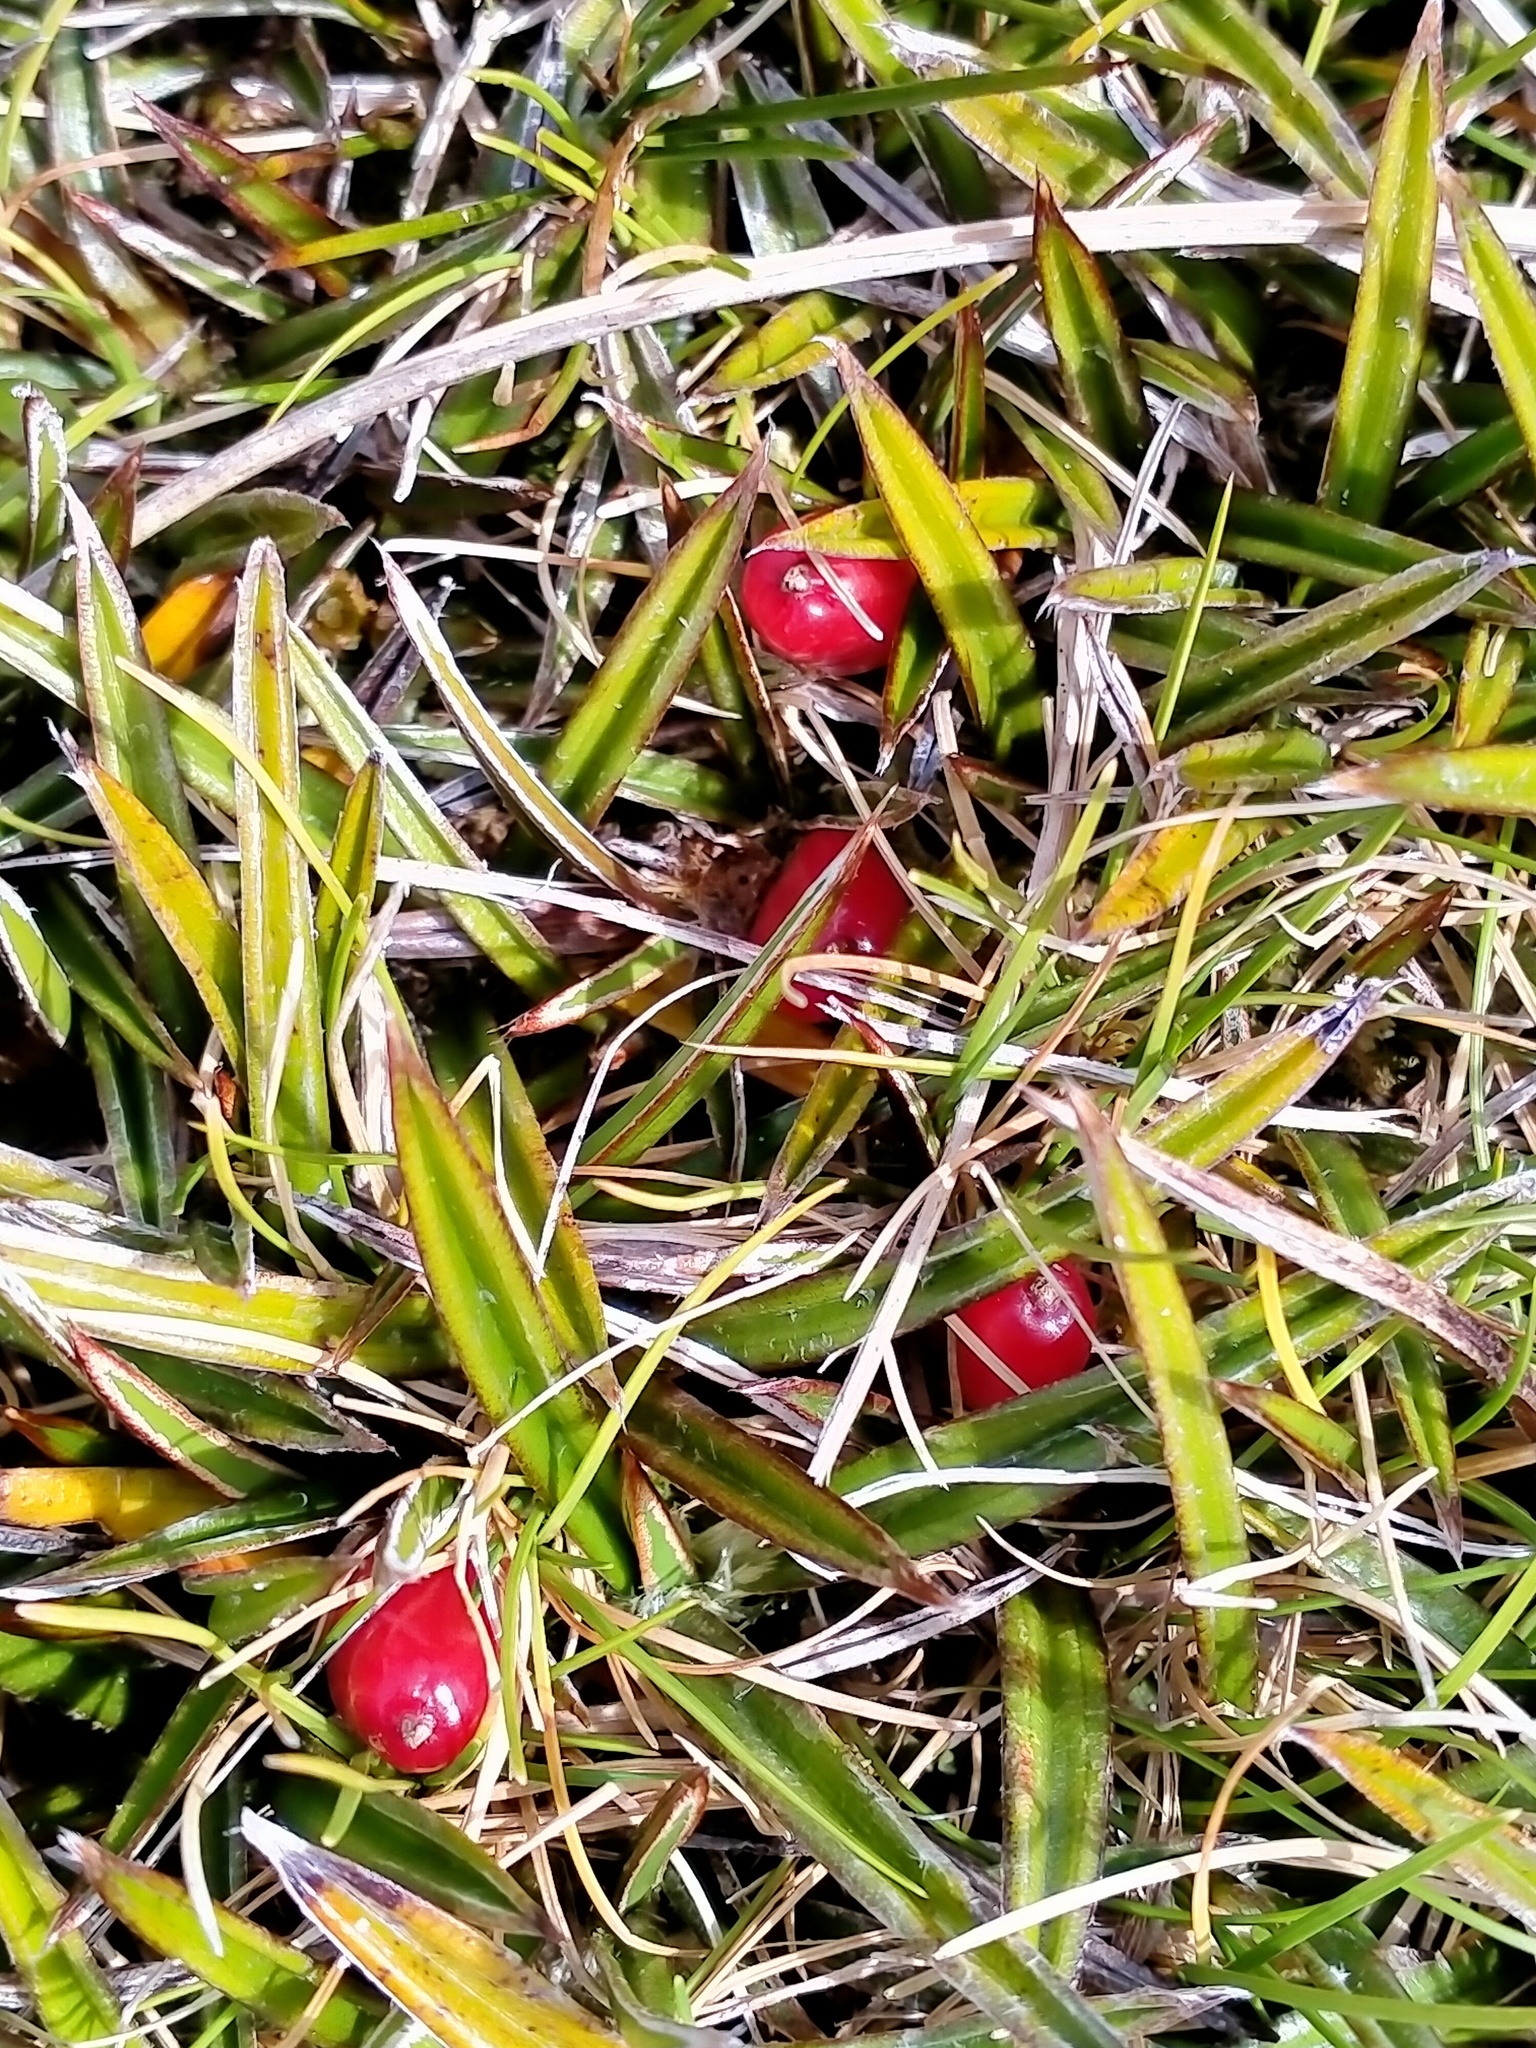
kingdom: Plantae
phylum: Tracheophyta
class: Liliopsida
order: Asparagales
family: Asteliaceae
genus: Astelia
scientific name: Astelia linearis
